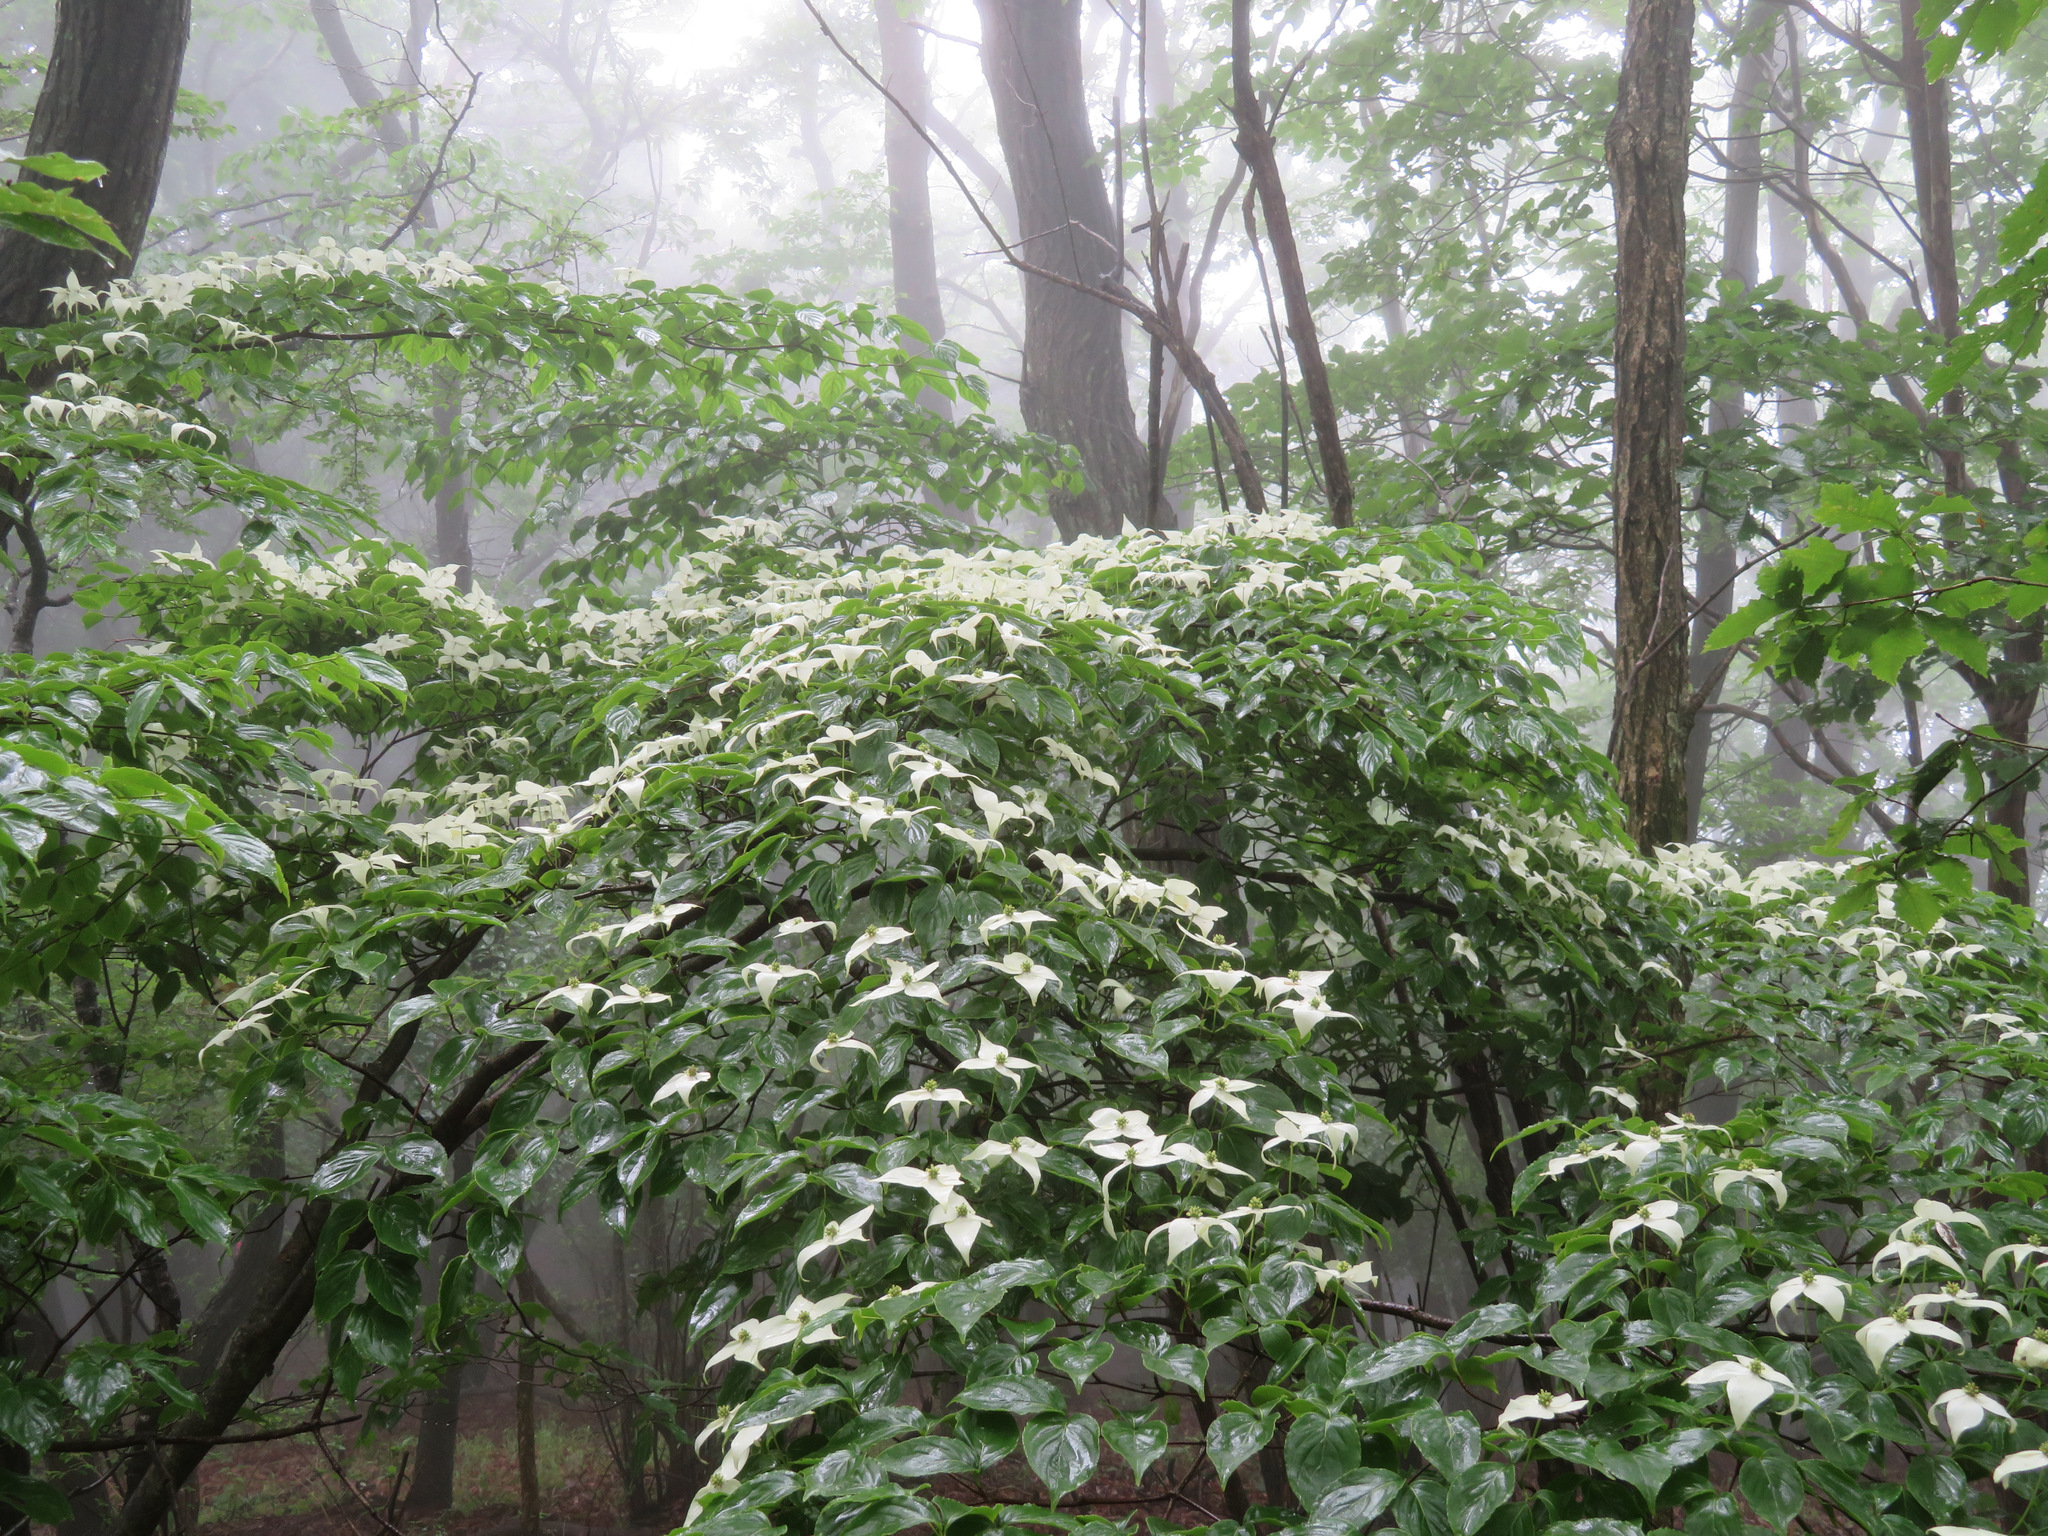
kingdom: Plantae
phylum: Tracheophyta
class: Magnoliopsida
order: Cornales
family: Cornaceae
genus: Cornus
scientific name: Cornus kousa
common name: Japanese dogwood
